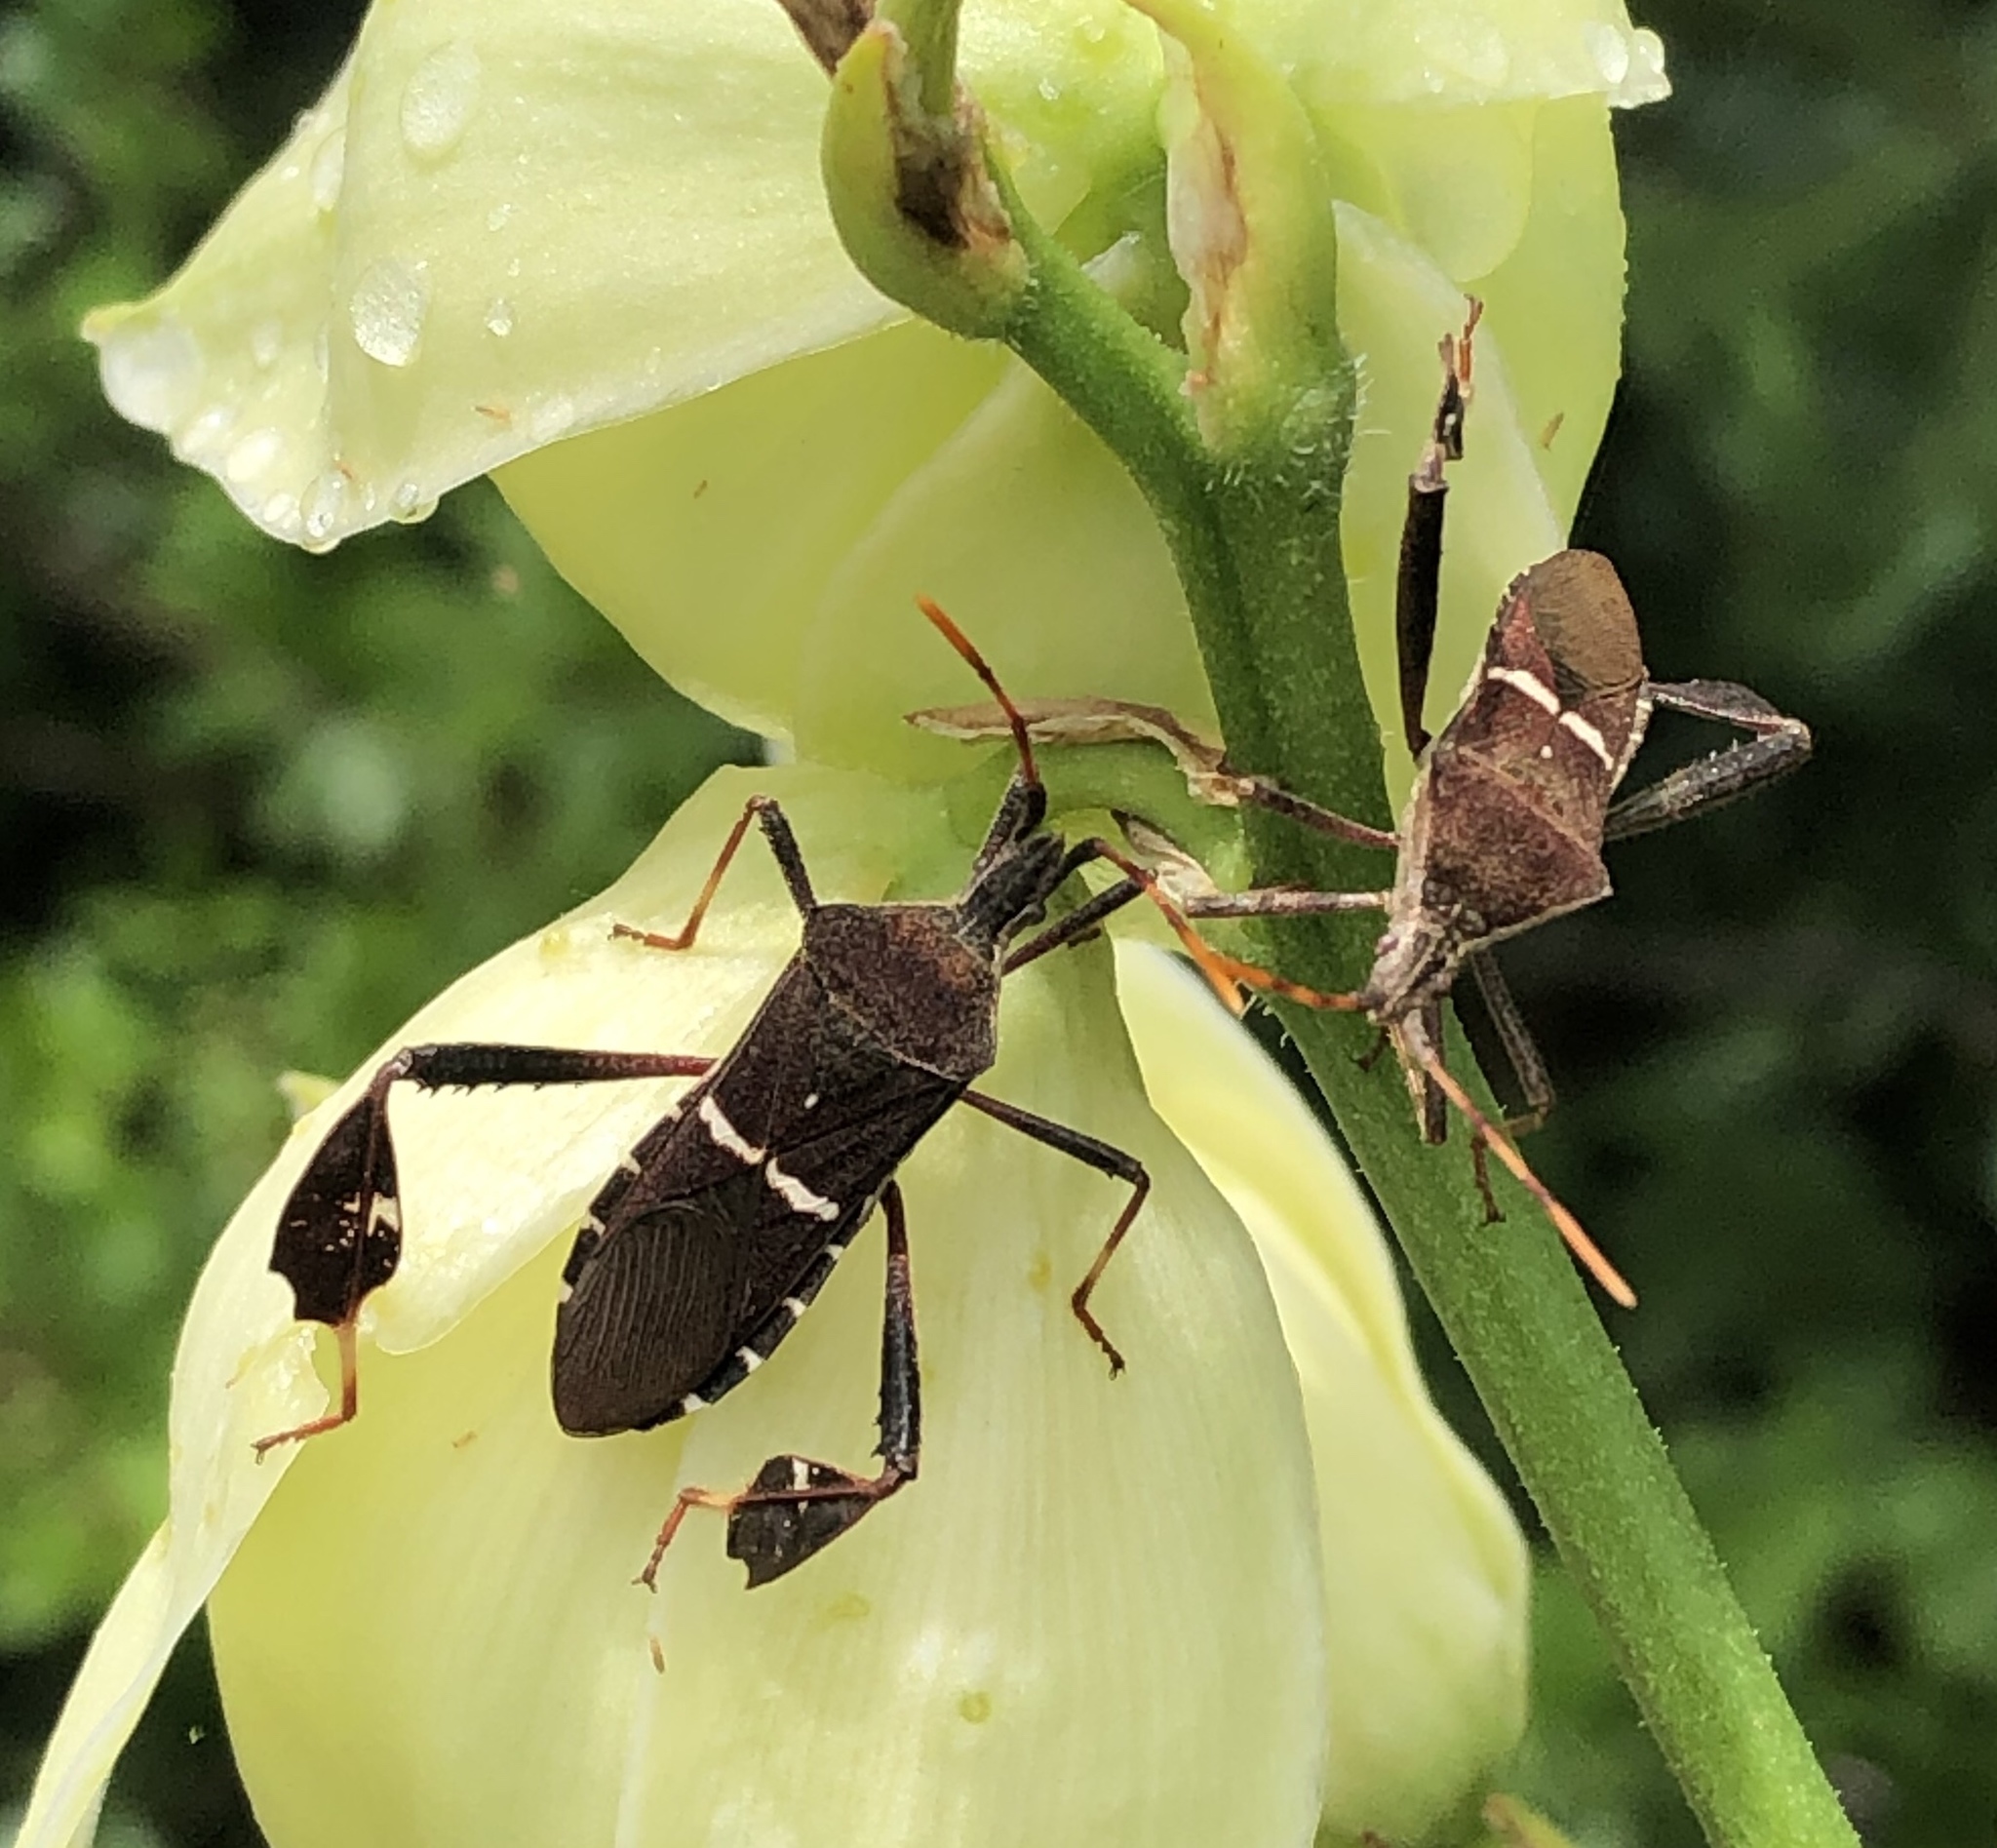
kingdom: Animalia
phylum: Arthropoda
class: Insecta
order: Hemiptera
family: Coreidae
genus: Leptoglossus
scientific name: Leptoglossus phyllopus
